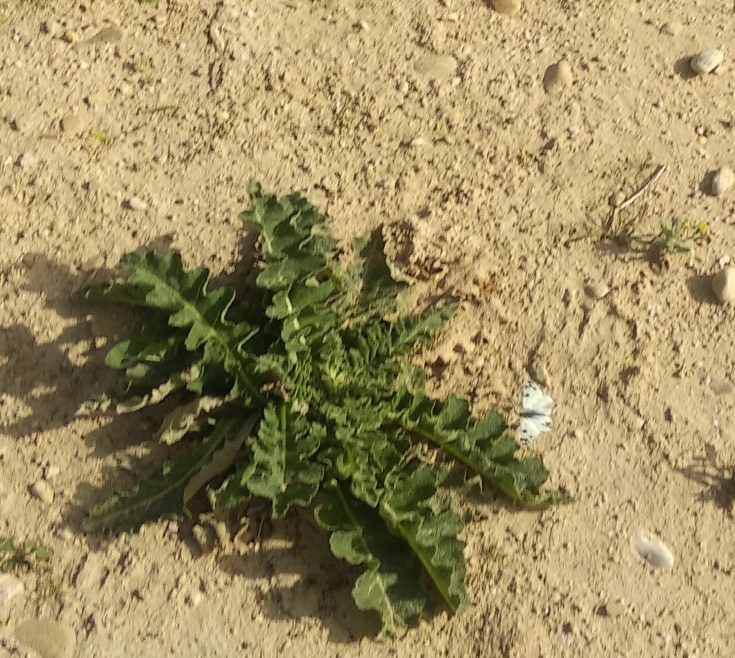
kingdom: Animalia
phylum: Arthropoda
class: Insecta
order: Lepidoptera
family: Pieridae
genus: Pontia
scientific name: Pontia daplidice
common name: Bath white
